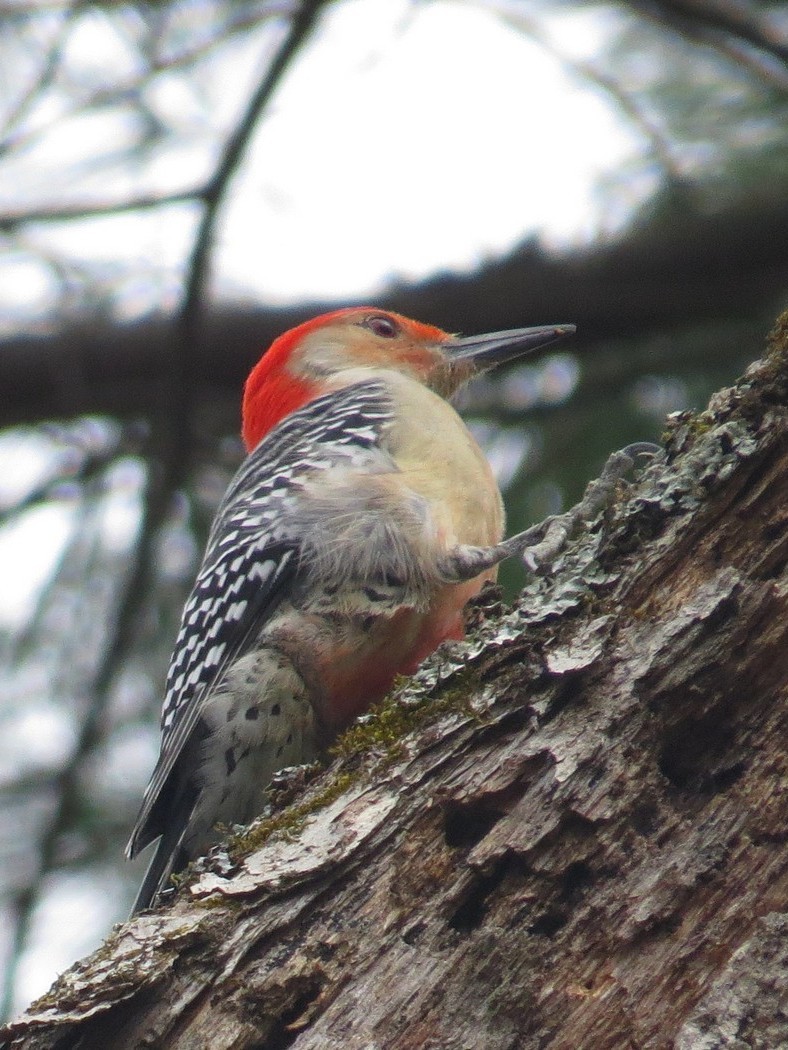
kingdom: Animalia
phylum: Chordata
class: Aves
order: Piciformes
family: Picidae
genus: Melanerpes
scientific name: Melanerpes carolinus
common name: Red-bellied woodpecker
